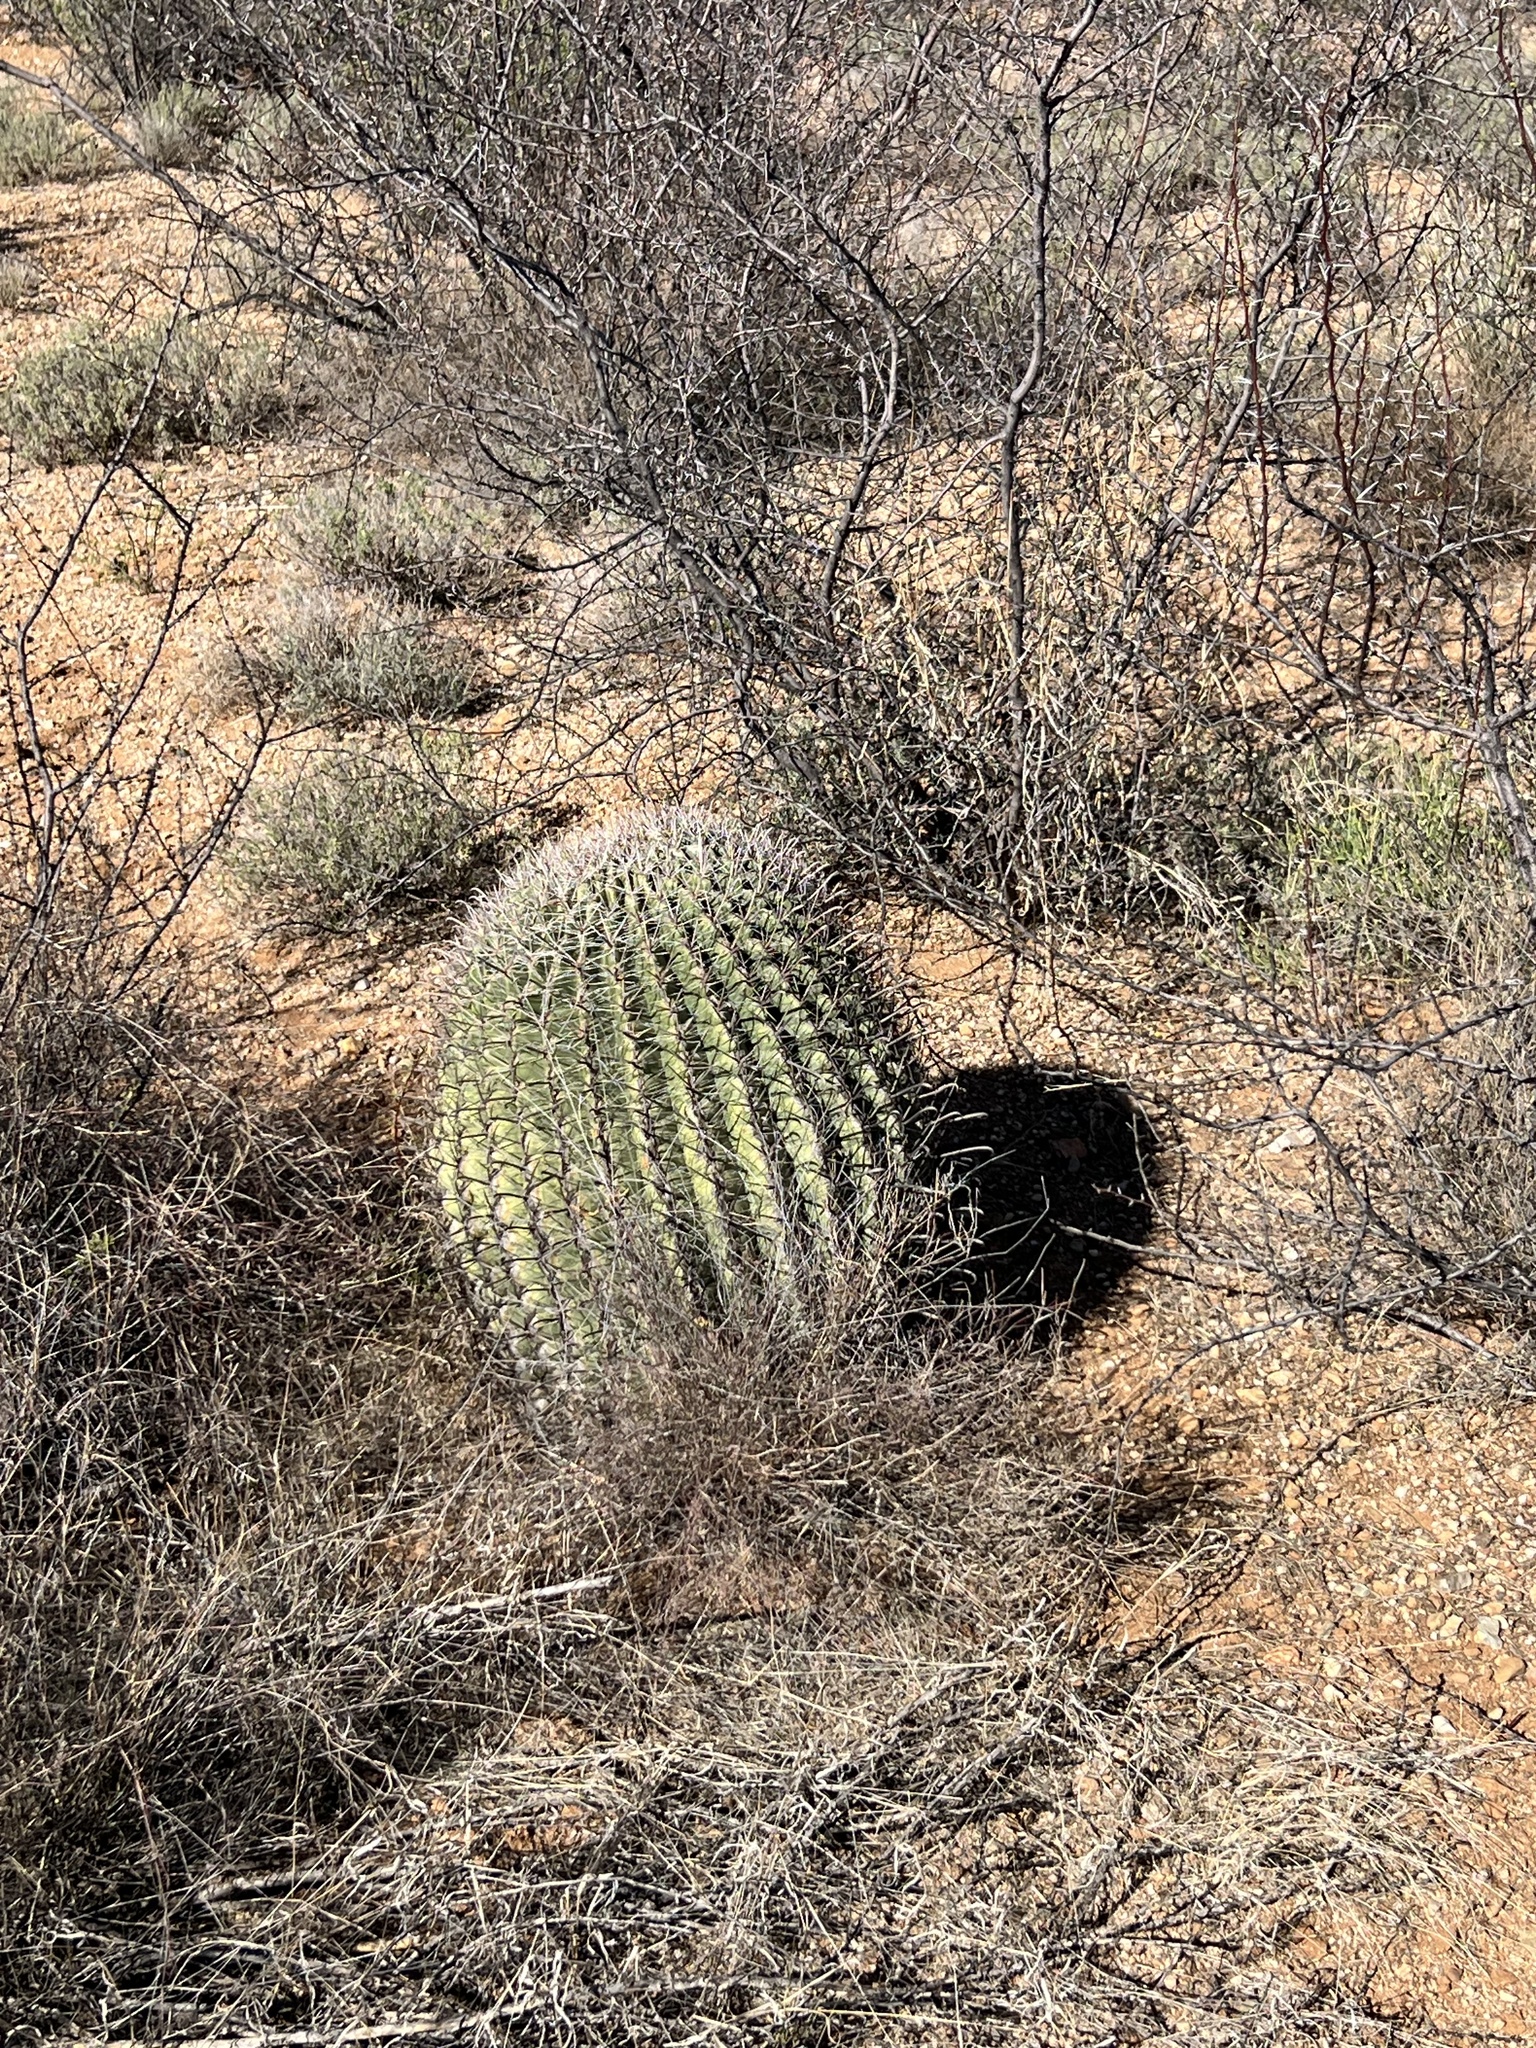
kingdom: Plantae
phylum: Tracheophyta
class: Magnoliopsida
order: Caryophyllales
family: Cactaceae
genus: Ferocactus
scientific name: Ferocactus wislizeni
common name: Candy barrel cactus
